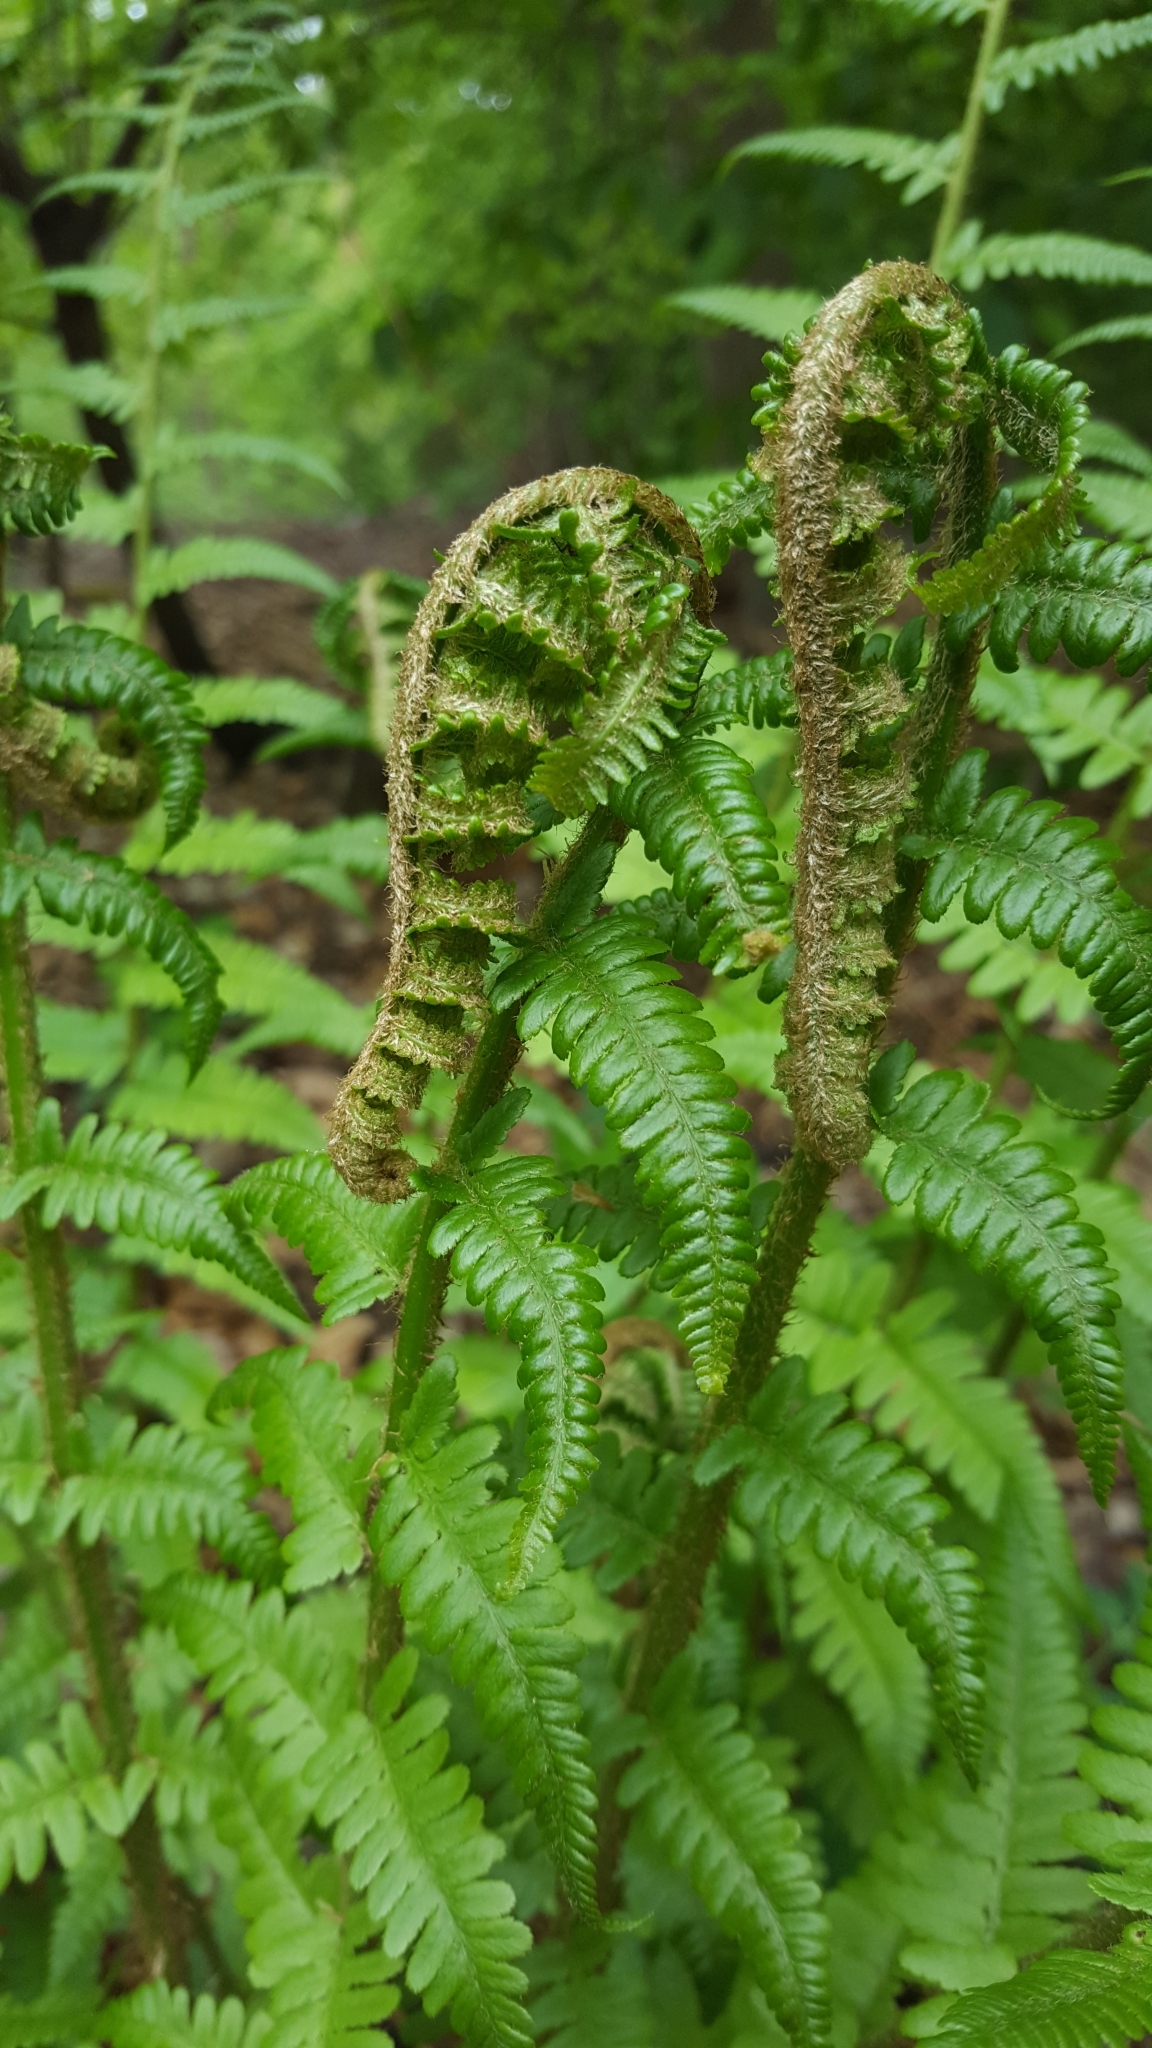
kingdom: Plantae
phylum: Tracheophyta
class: Polypodiopsida
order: Polypodiales
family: Dryopteridaceae
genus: Dryopteris
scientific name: Dryopteris filix-mas
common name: Male fern
